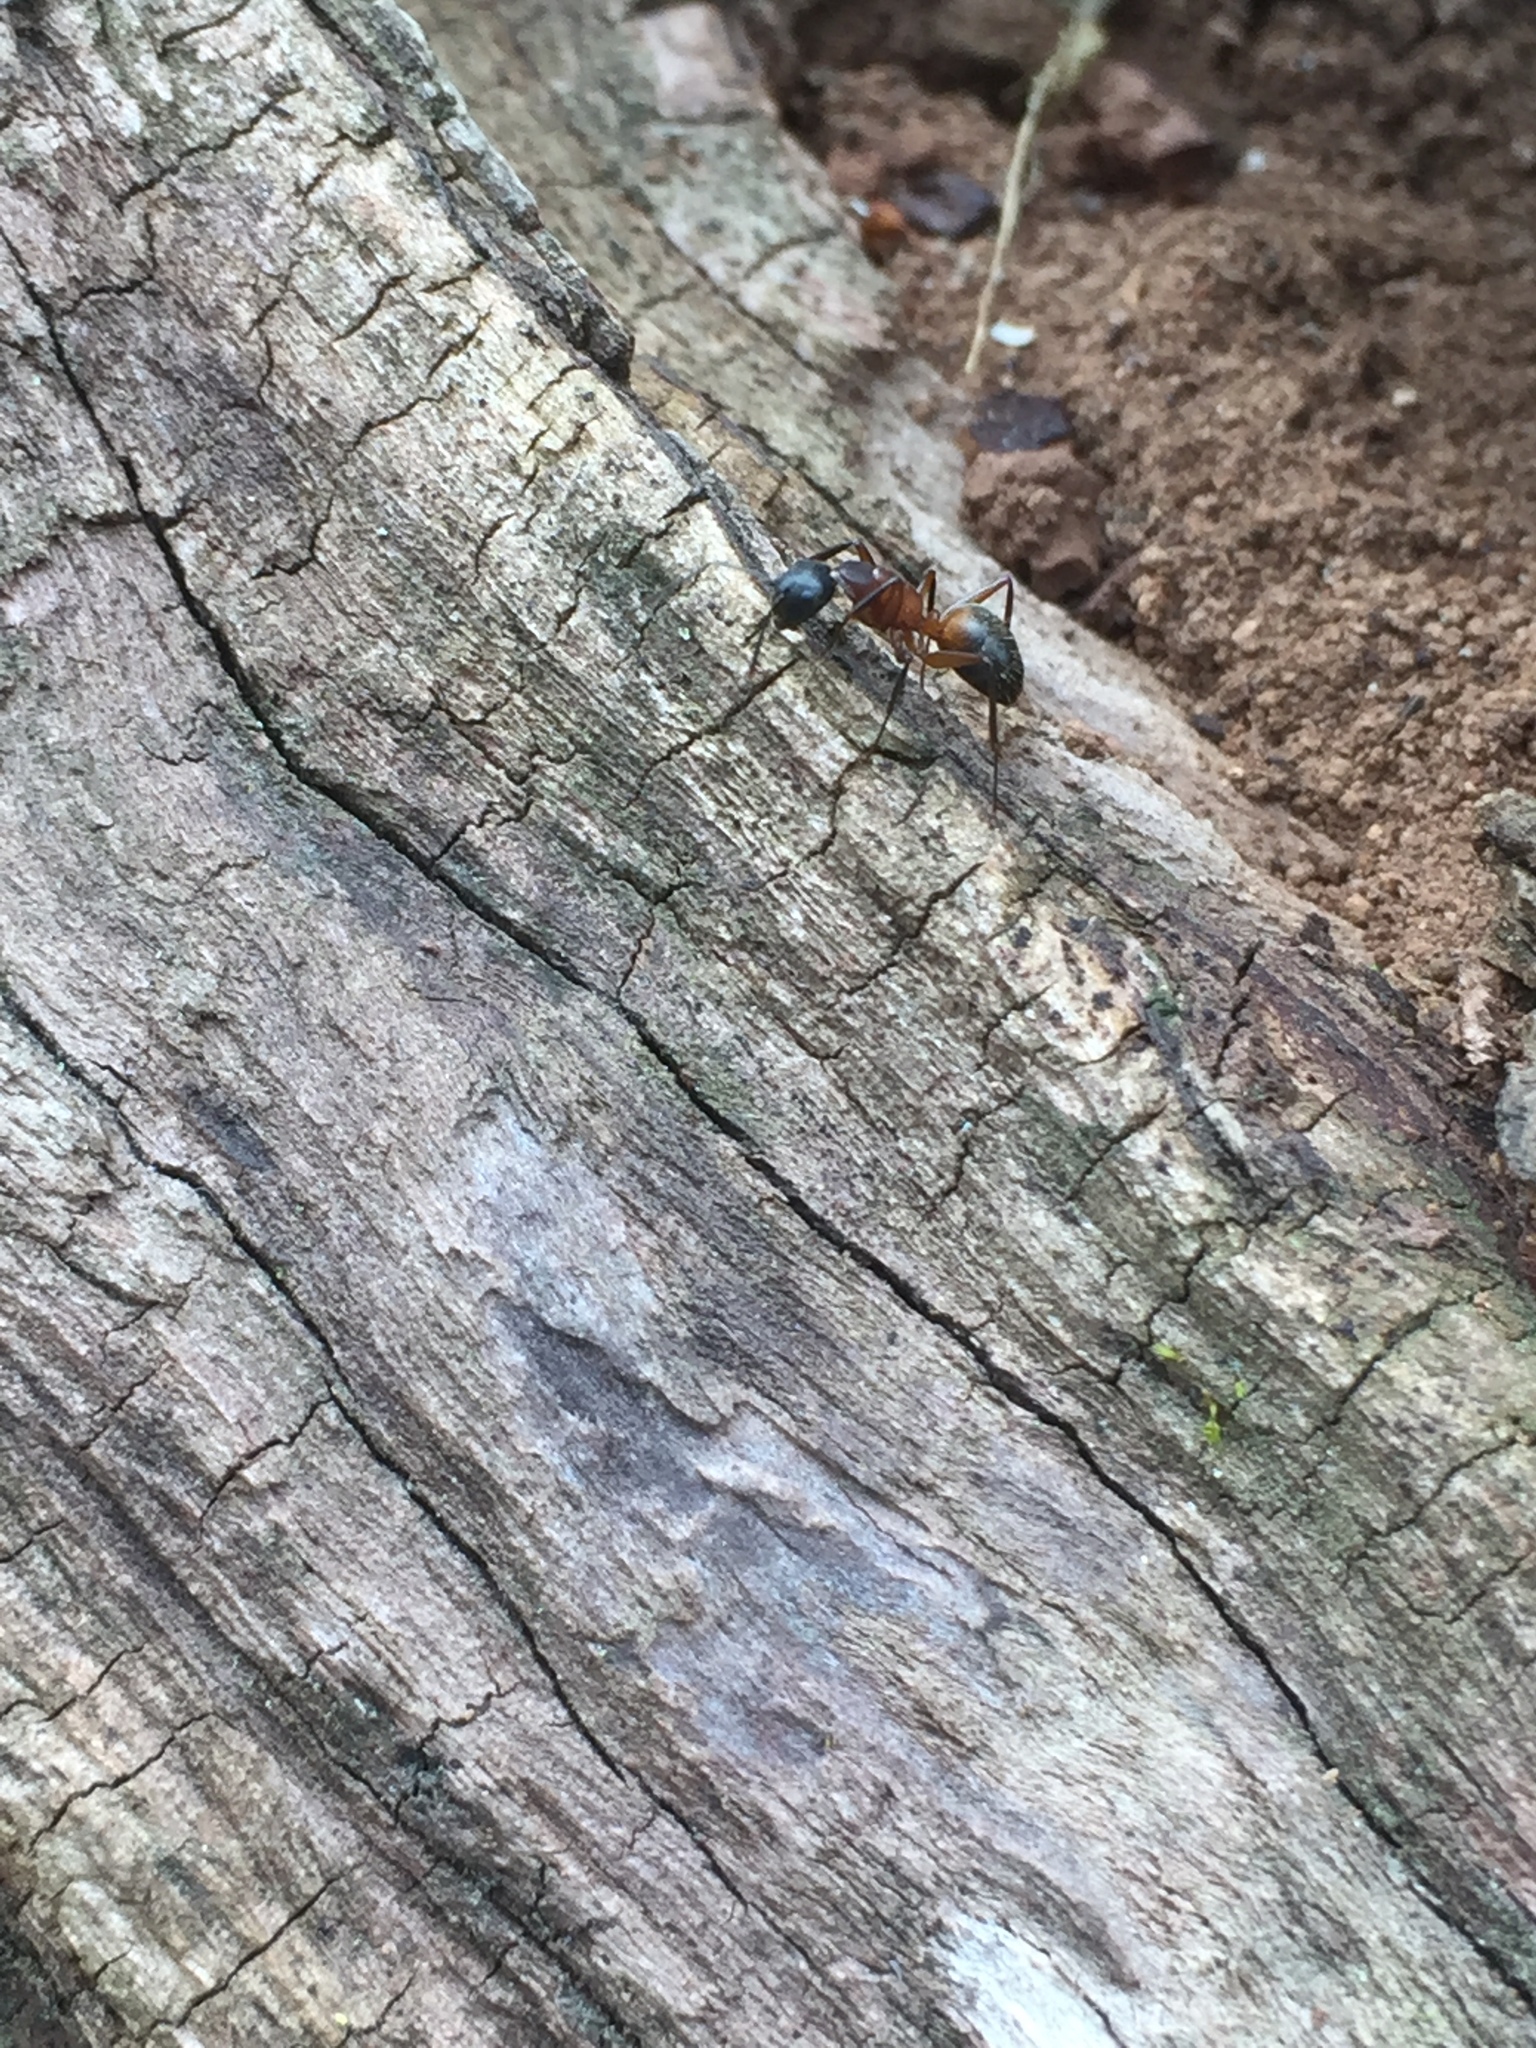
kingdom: Animalia
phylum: Arthropoda
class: Insecta
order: Hymenoptera
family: Formicidae
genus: Camponotus
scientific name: Camponotus chromaiodes
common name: Red carpenter ant
